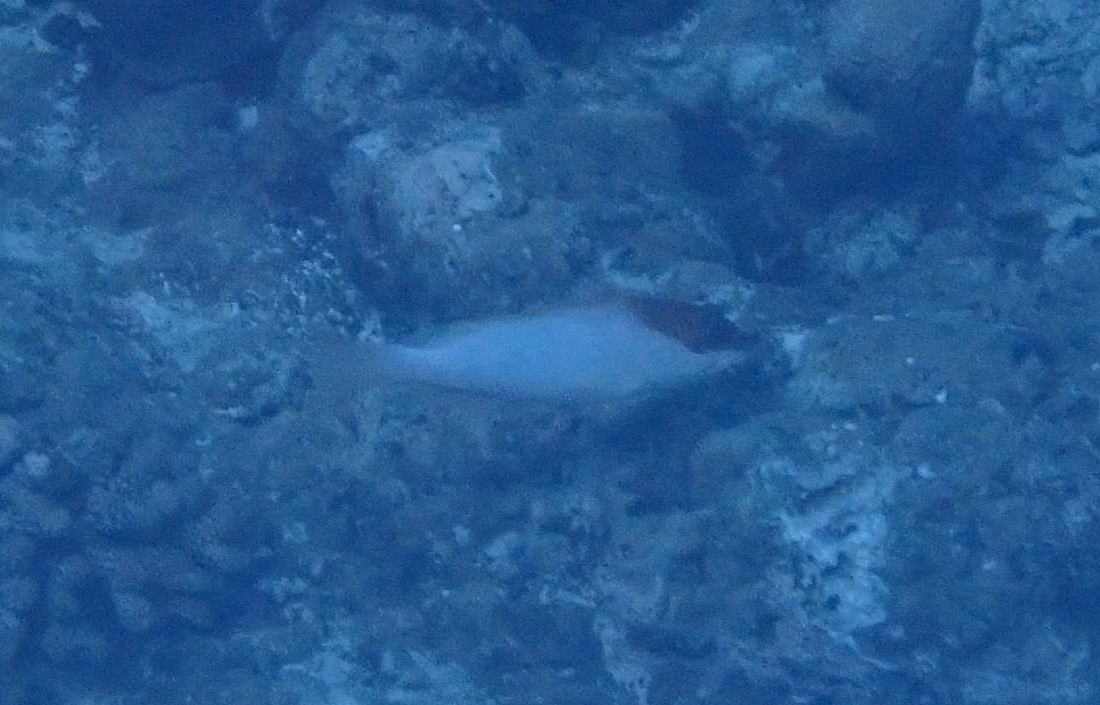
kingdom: Animalia
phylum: Chordata
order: Perciformes
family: Serranidae
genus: Epinephelus
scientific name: Epinephelus fasciatus
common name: Blacktip grouper
